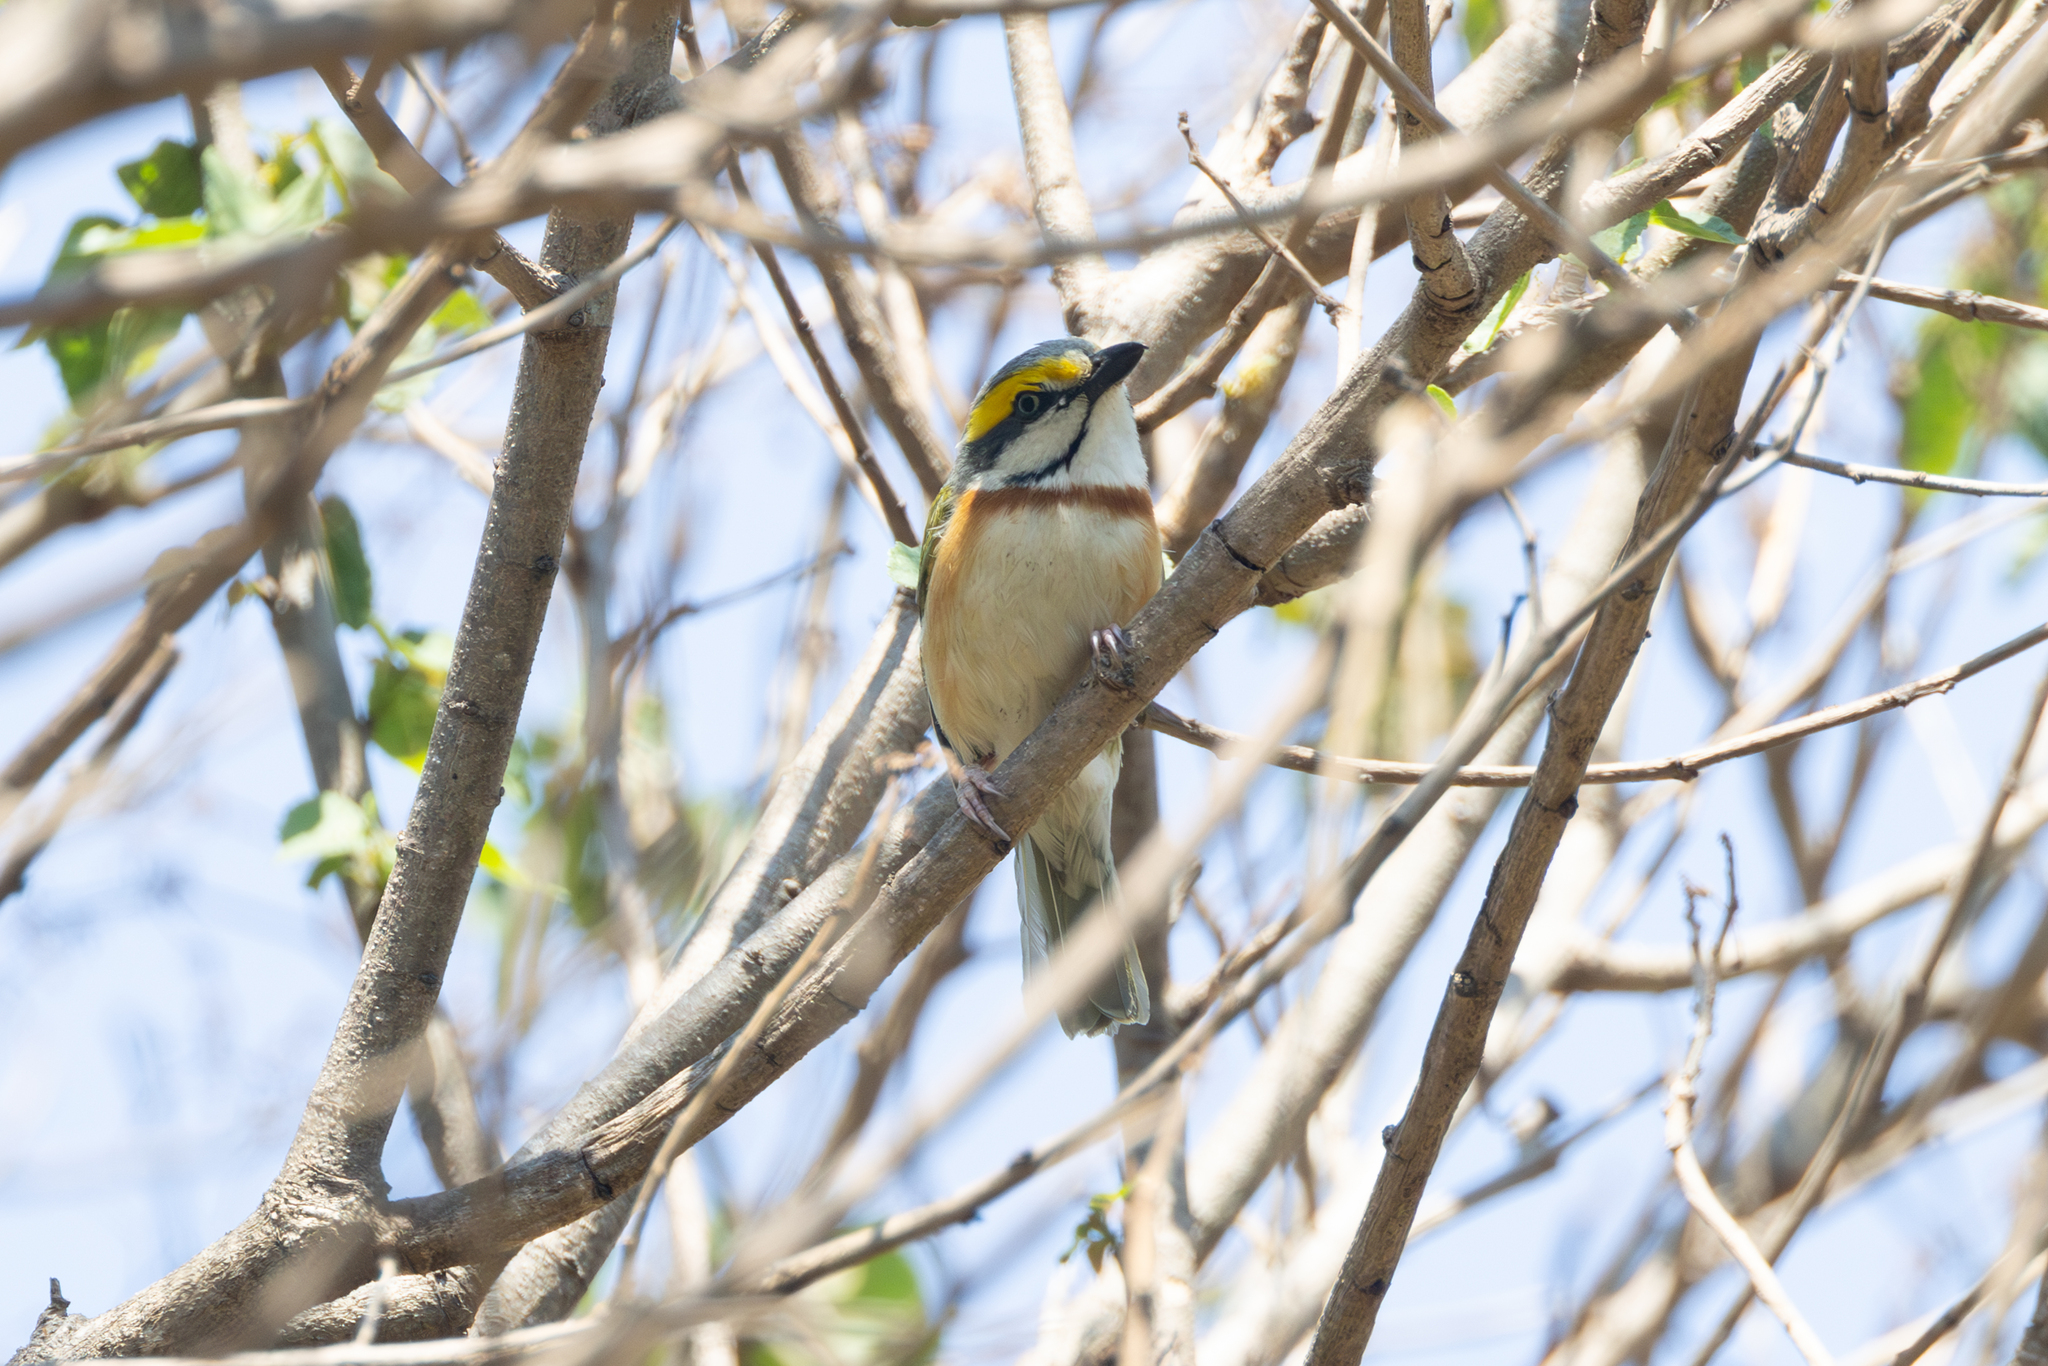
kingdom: Animalia
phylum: Chordata
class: Aves
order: Passeriformes
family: Vireonidae
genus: Vireolanius
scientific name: Vireolanius melitophrys
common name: Chestnut-sided shrike-vireo
